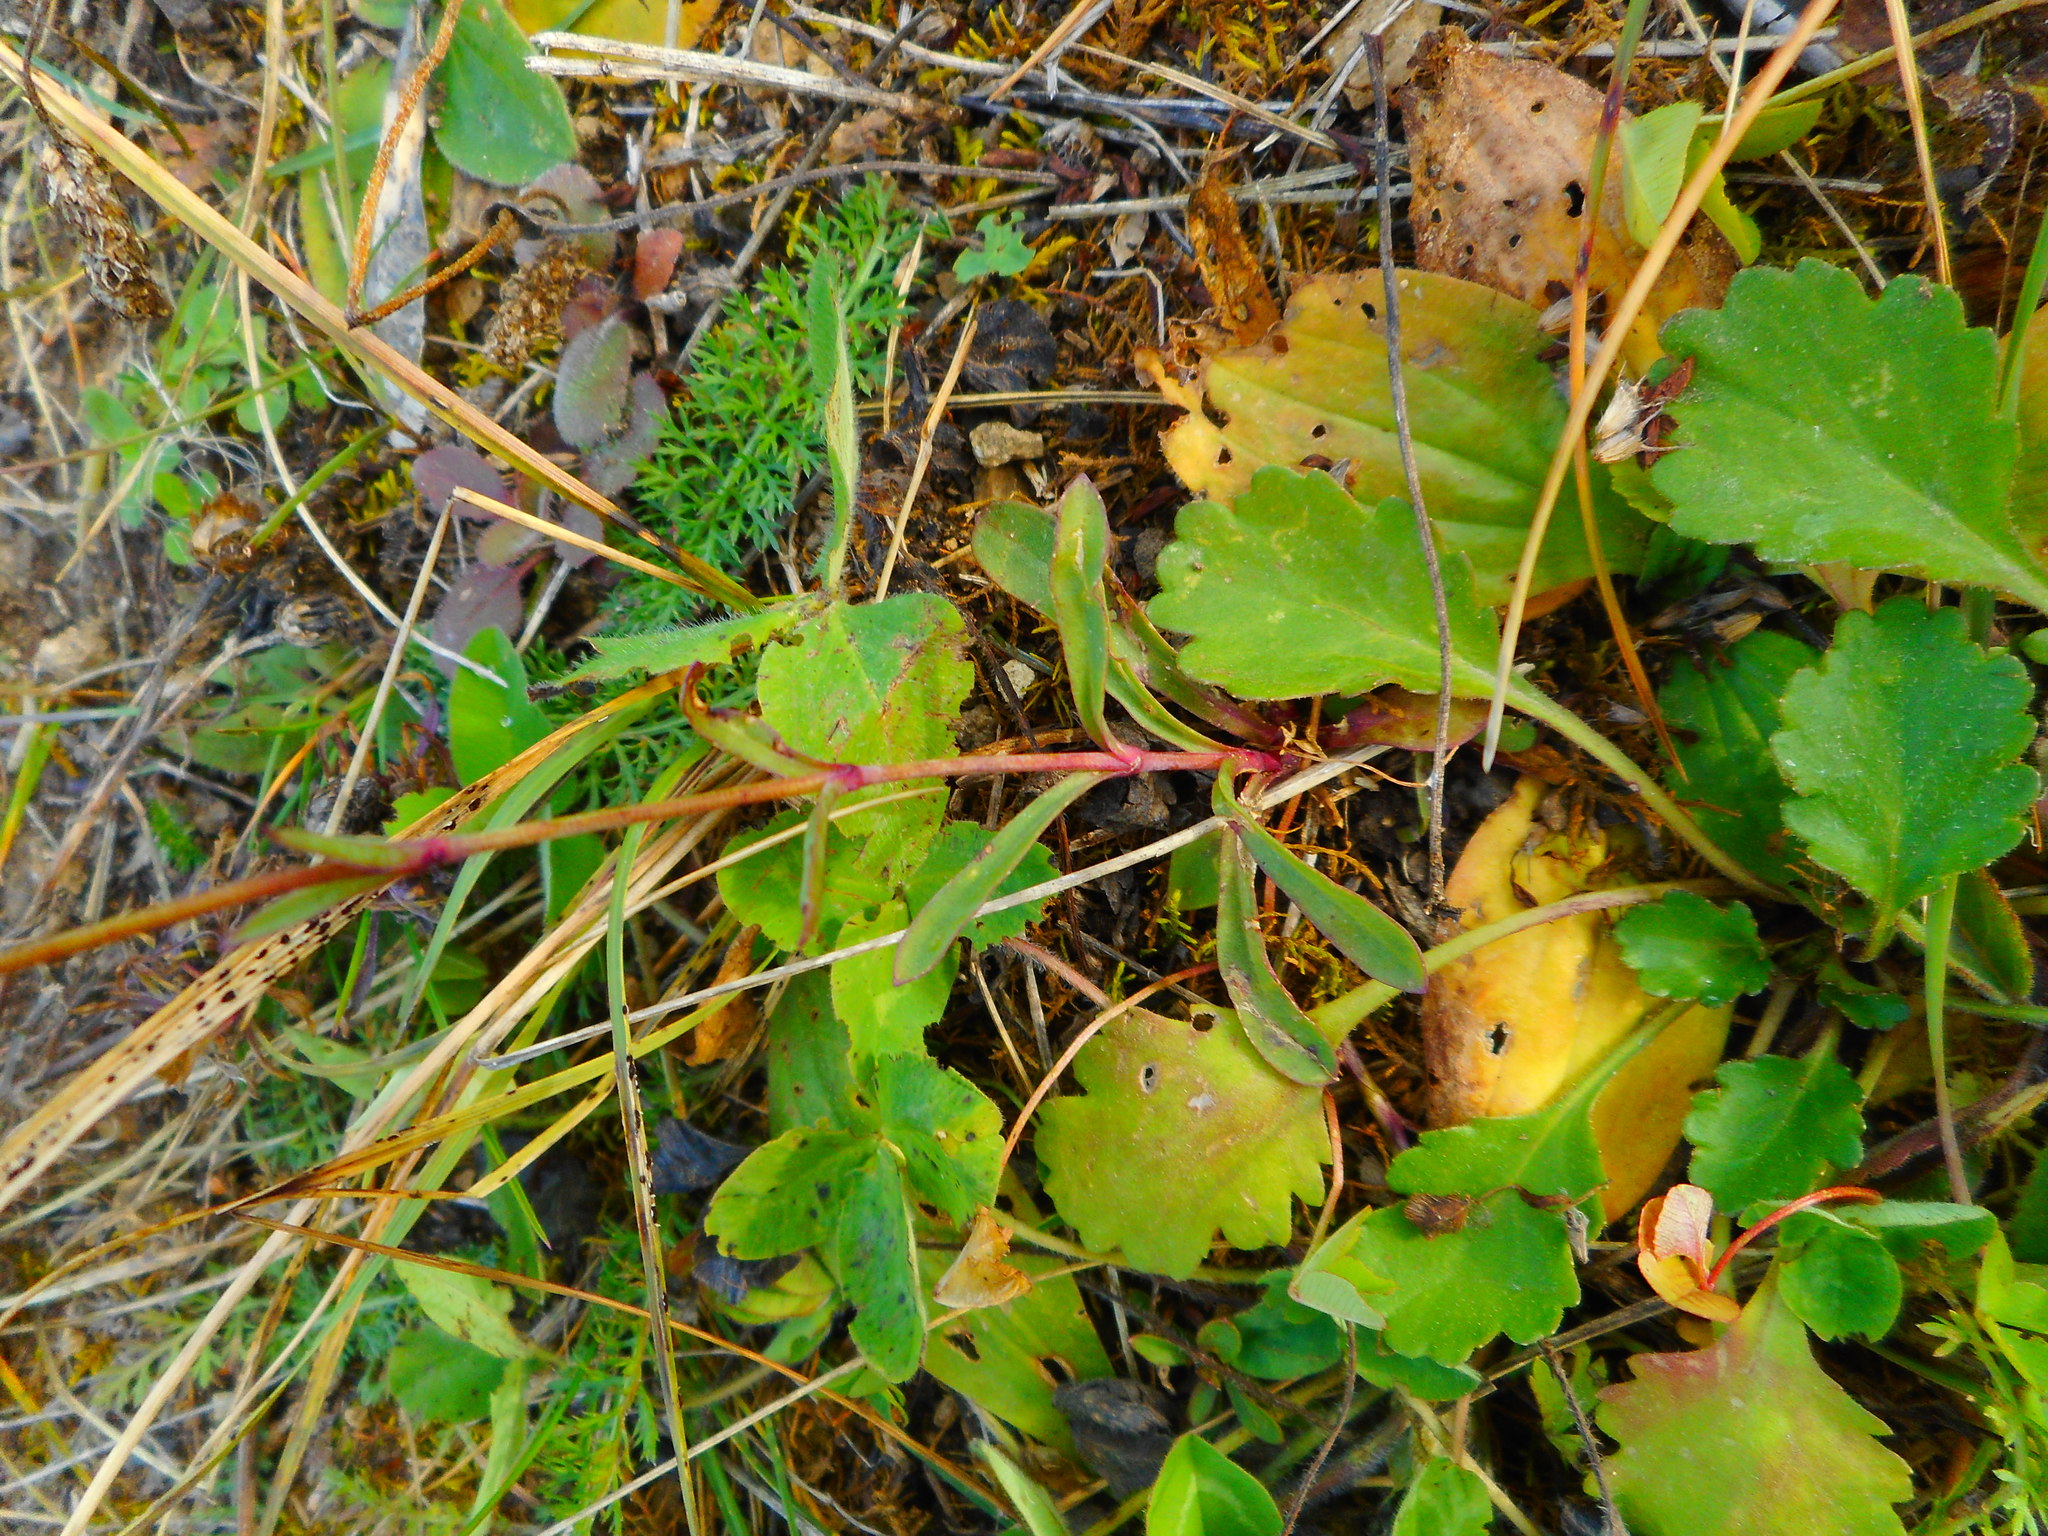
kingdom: Plantae
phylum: Tracheophyta
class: Magnoliopsida
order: Caryophyllales
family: Caryophyllaceae
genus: Gypsophila
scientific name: Gypsophila altissima
